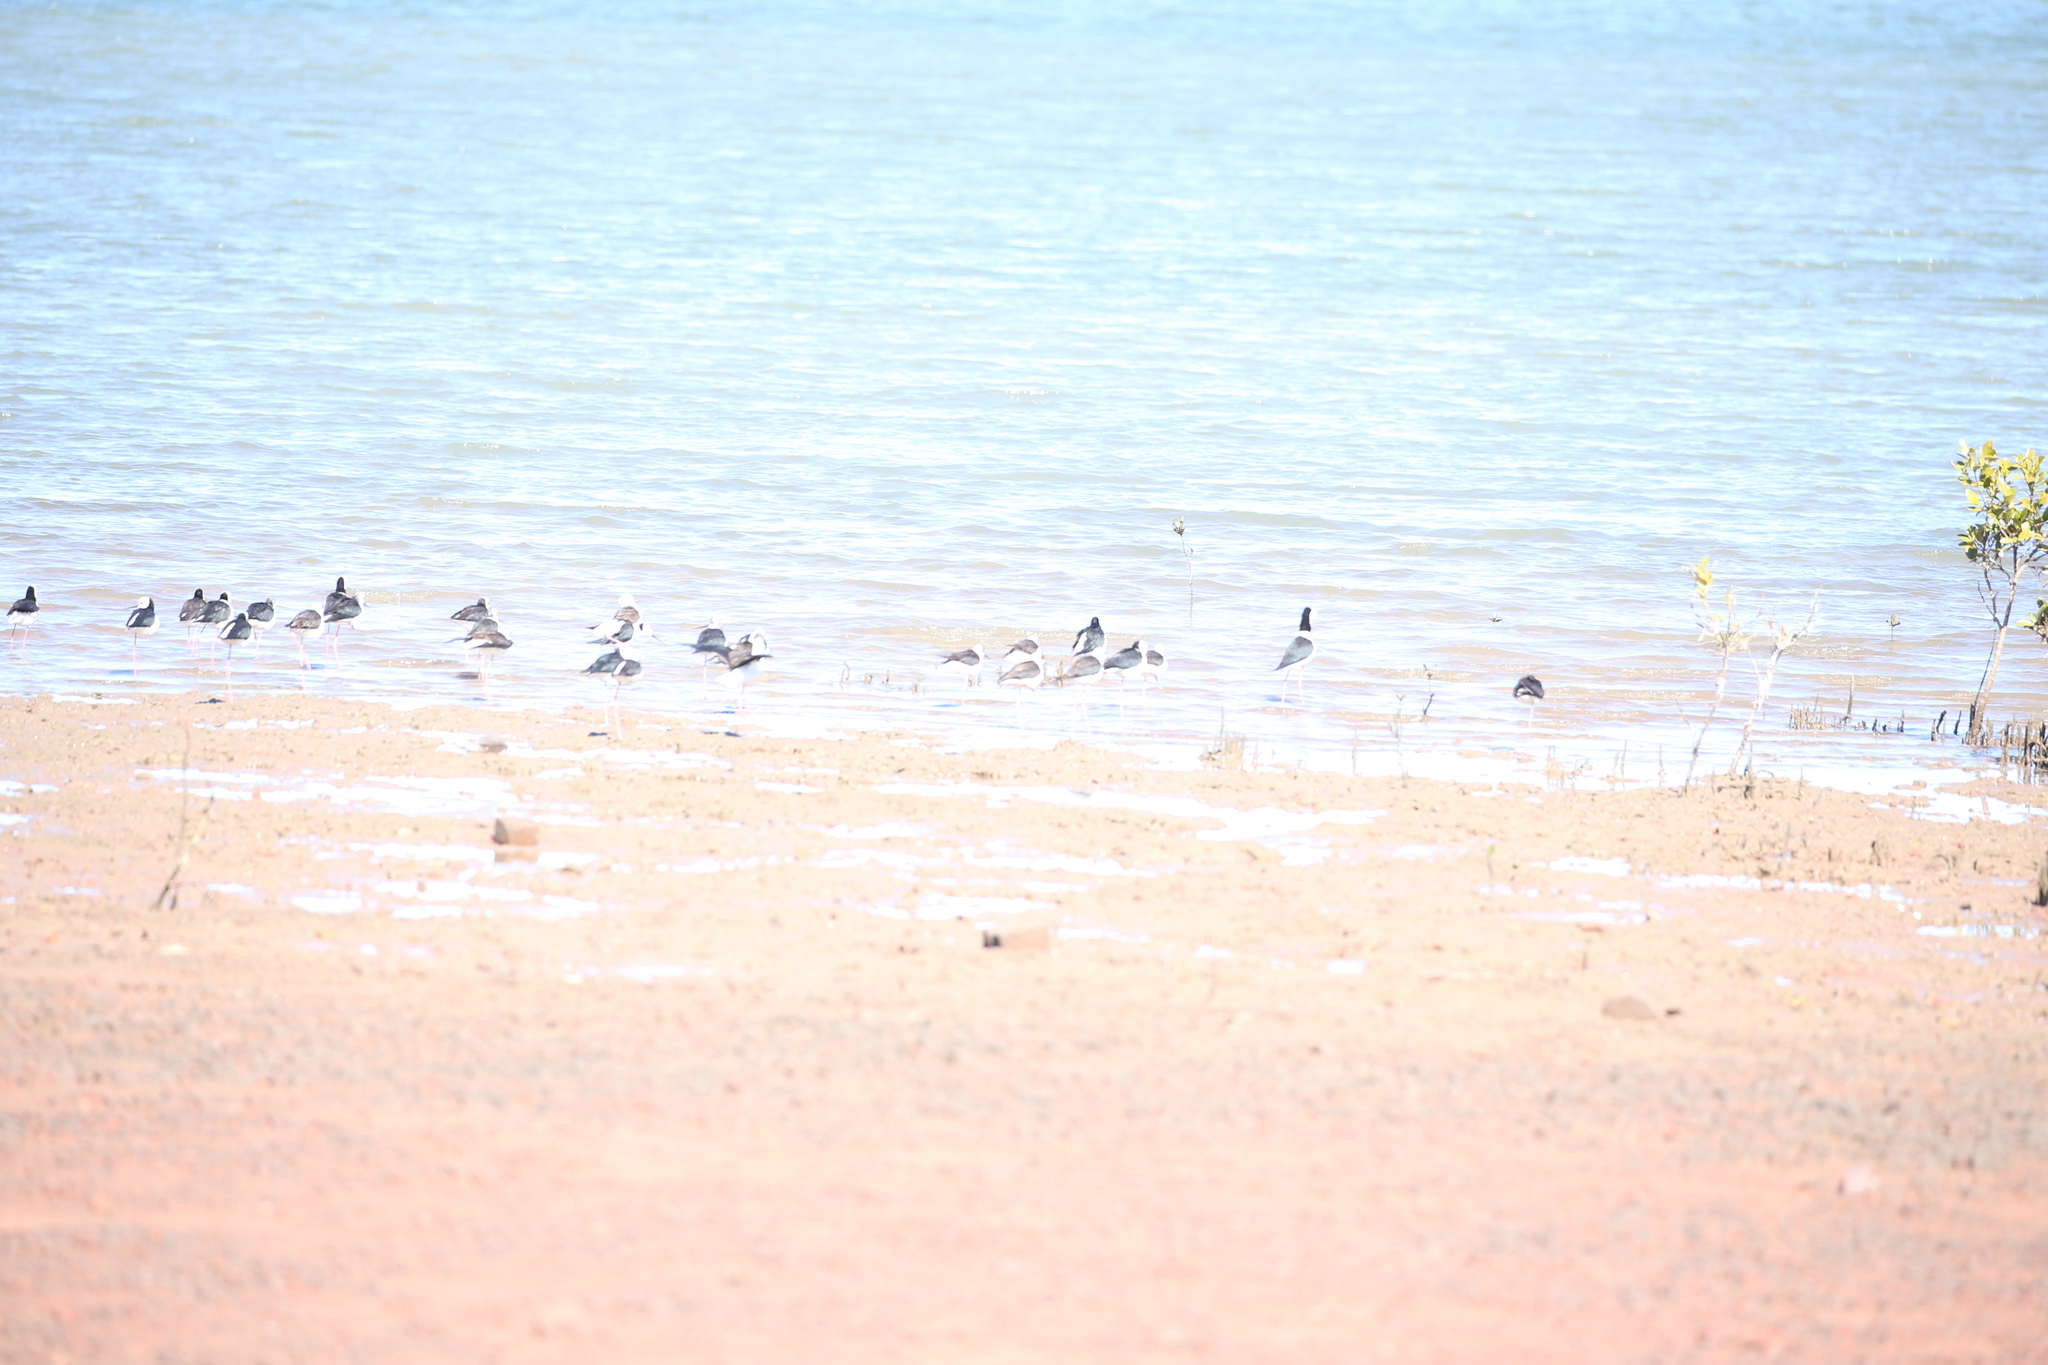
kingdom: Animalia
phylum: Chordata
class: Aves
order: Charadriiformes
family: Recurvirostridae
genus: Himantopus
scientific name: Himantopus leucocephalus
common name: White-headed stilt
